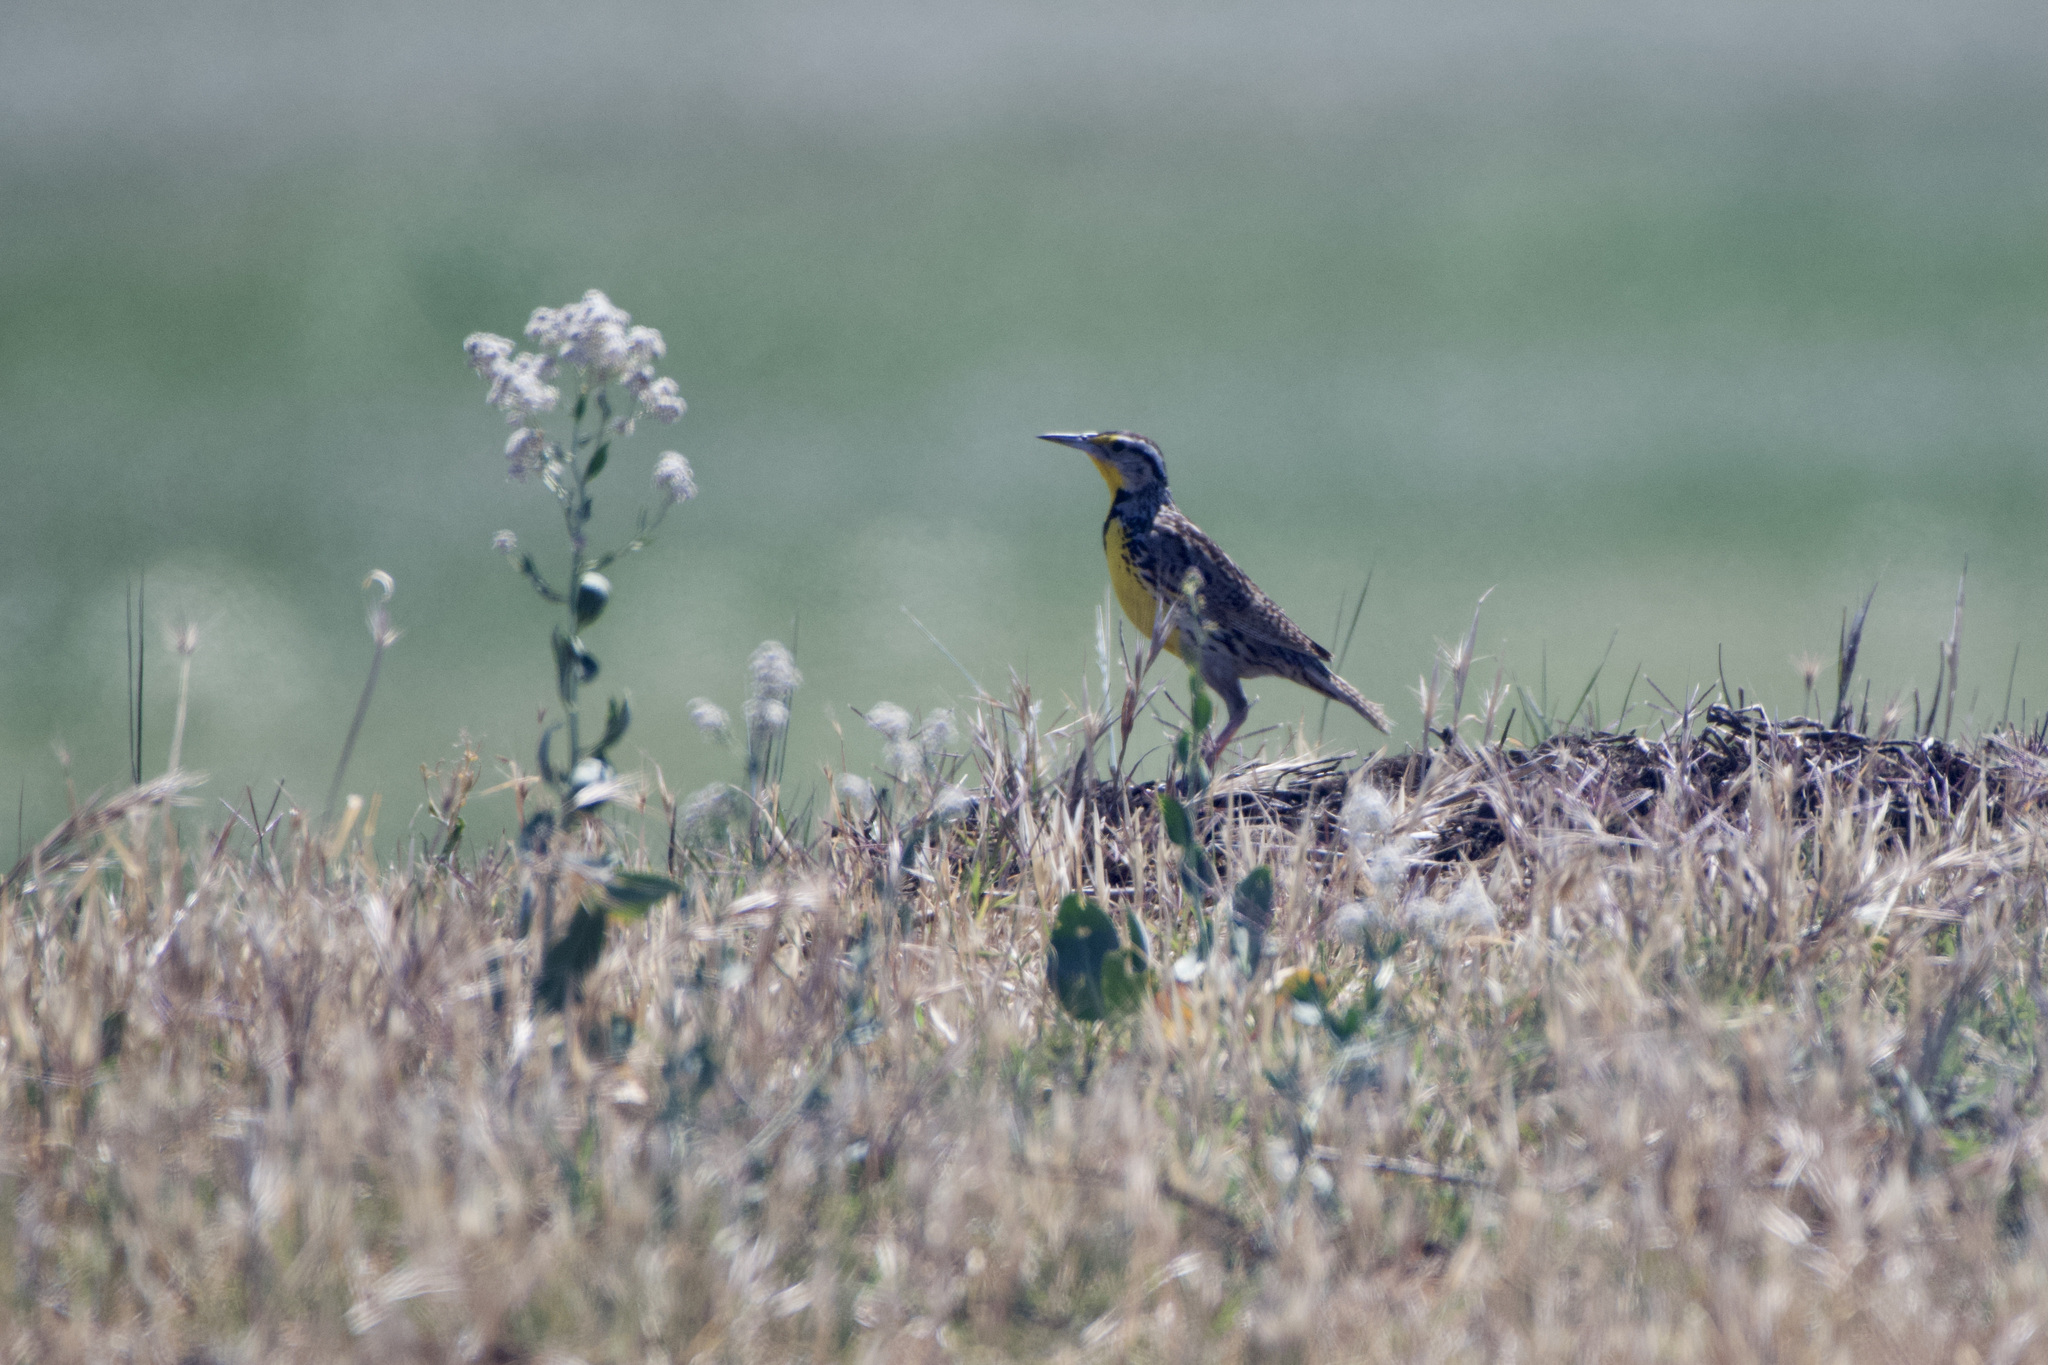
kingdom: Animalia
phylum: Chordata
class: Aves
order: Passeriformes
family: Icteridae
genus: Sturnella
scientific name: Sturnella neglecta
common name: Western meadowlark
